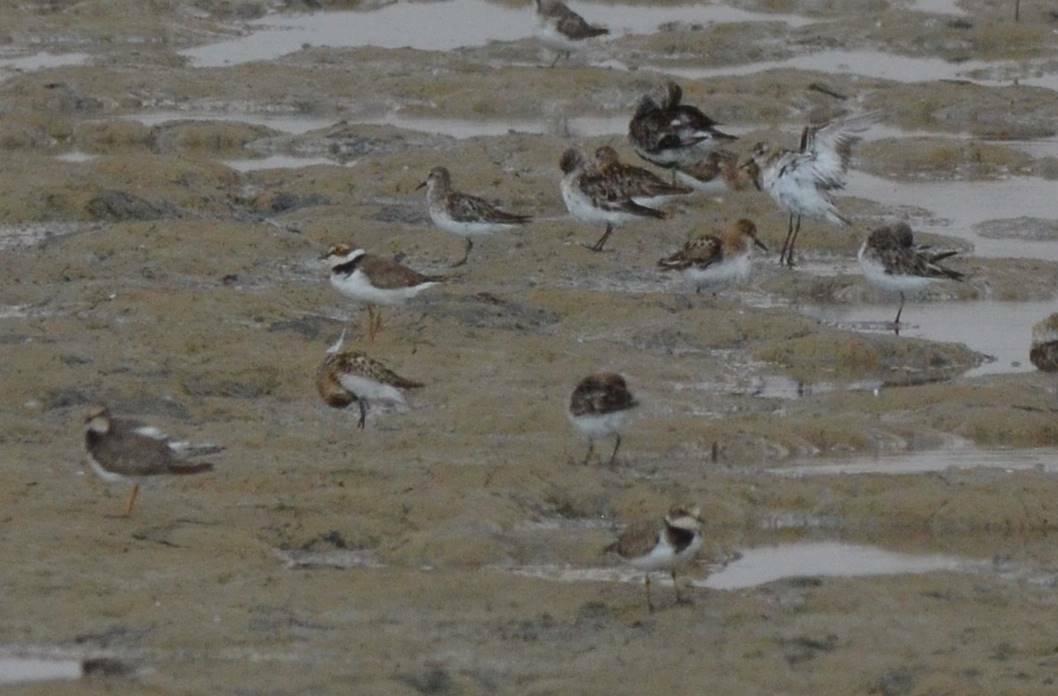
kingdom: Animalia
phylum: Chordata
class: Aves
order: Charadriiformes
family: Scolopacidae
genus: Calidris
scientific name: Calidris minuta
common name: Little stint
